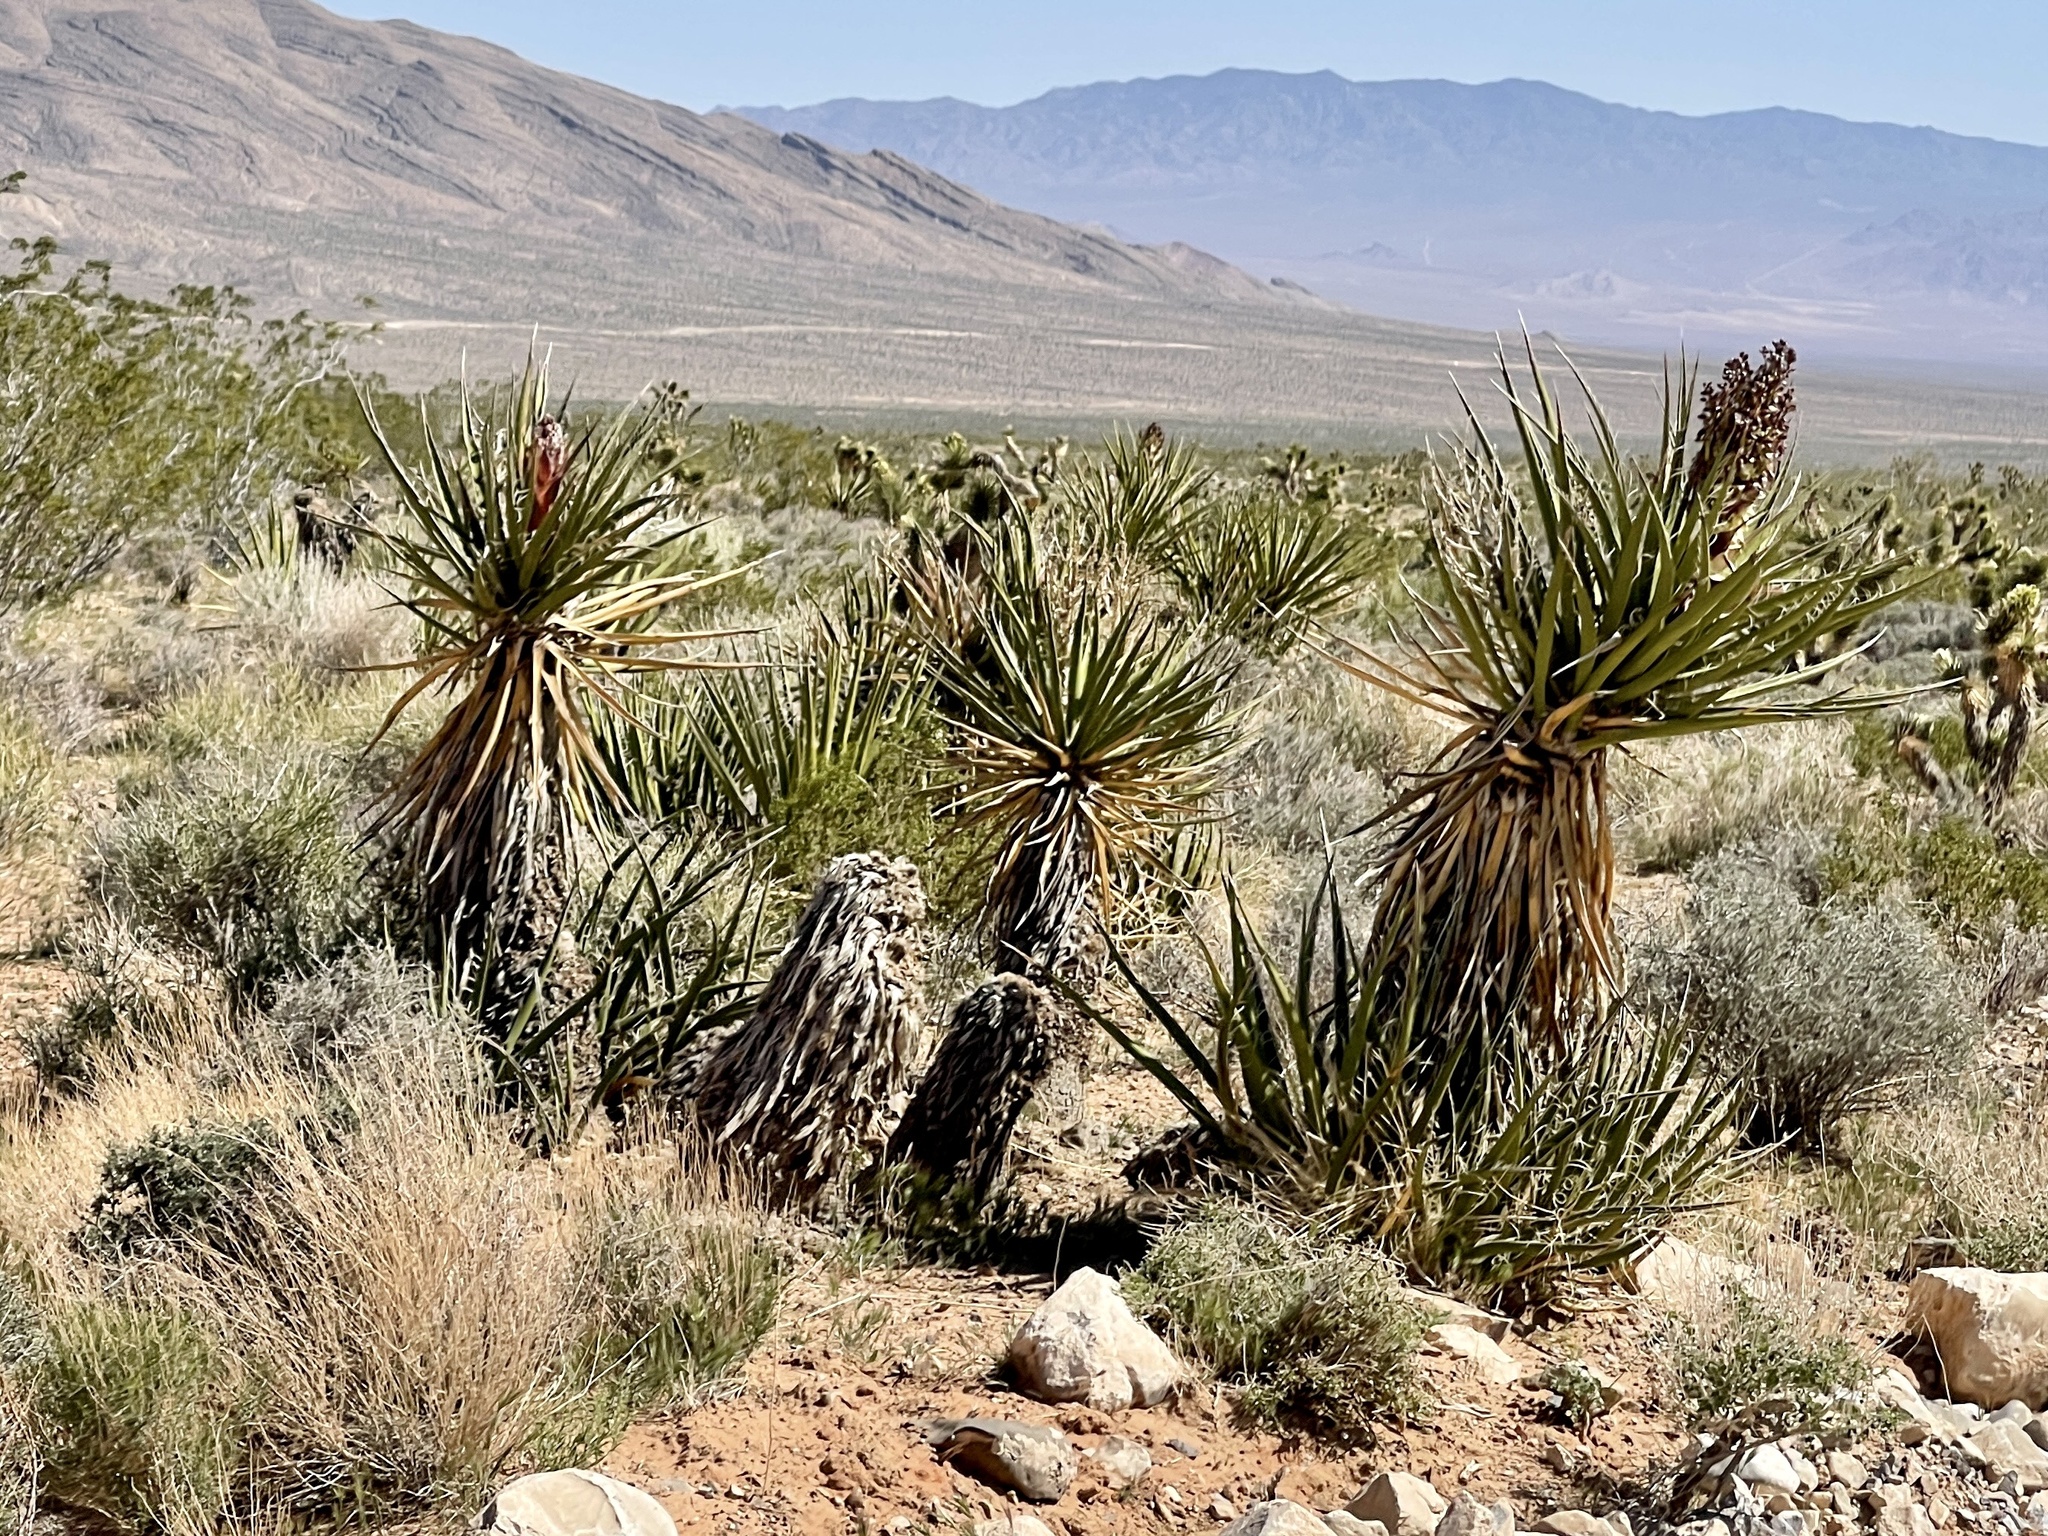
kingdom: Plantae
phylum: Tracheophyta
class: Liliopsida
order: Asparagales
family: Asparagaceae
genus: Yucca
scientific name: Yucca schidigera
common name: Mojave yucca
